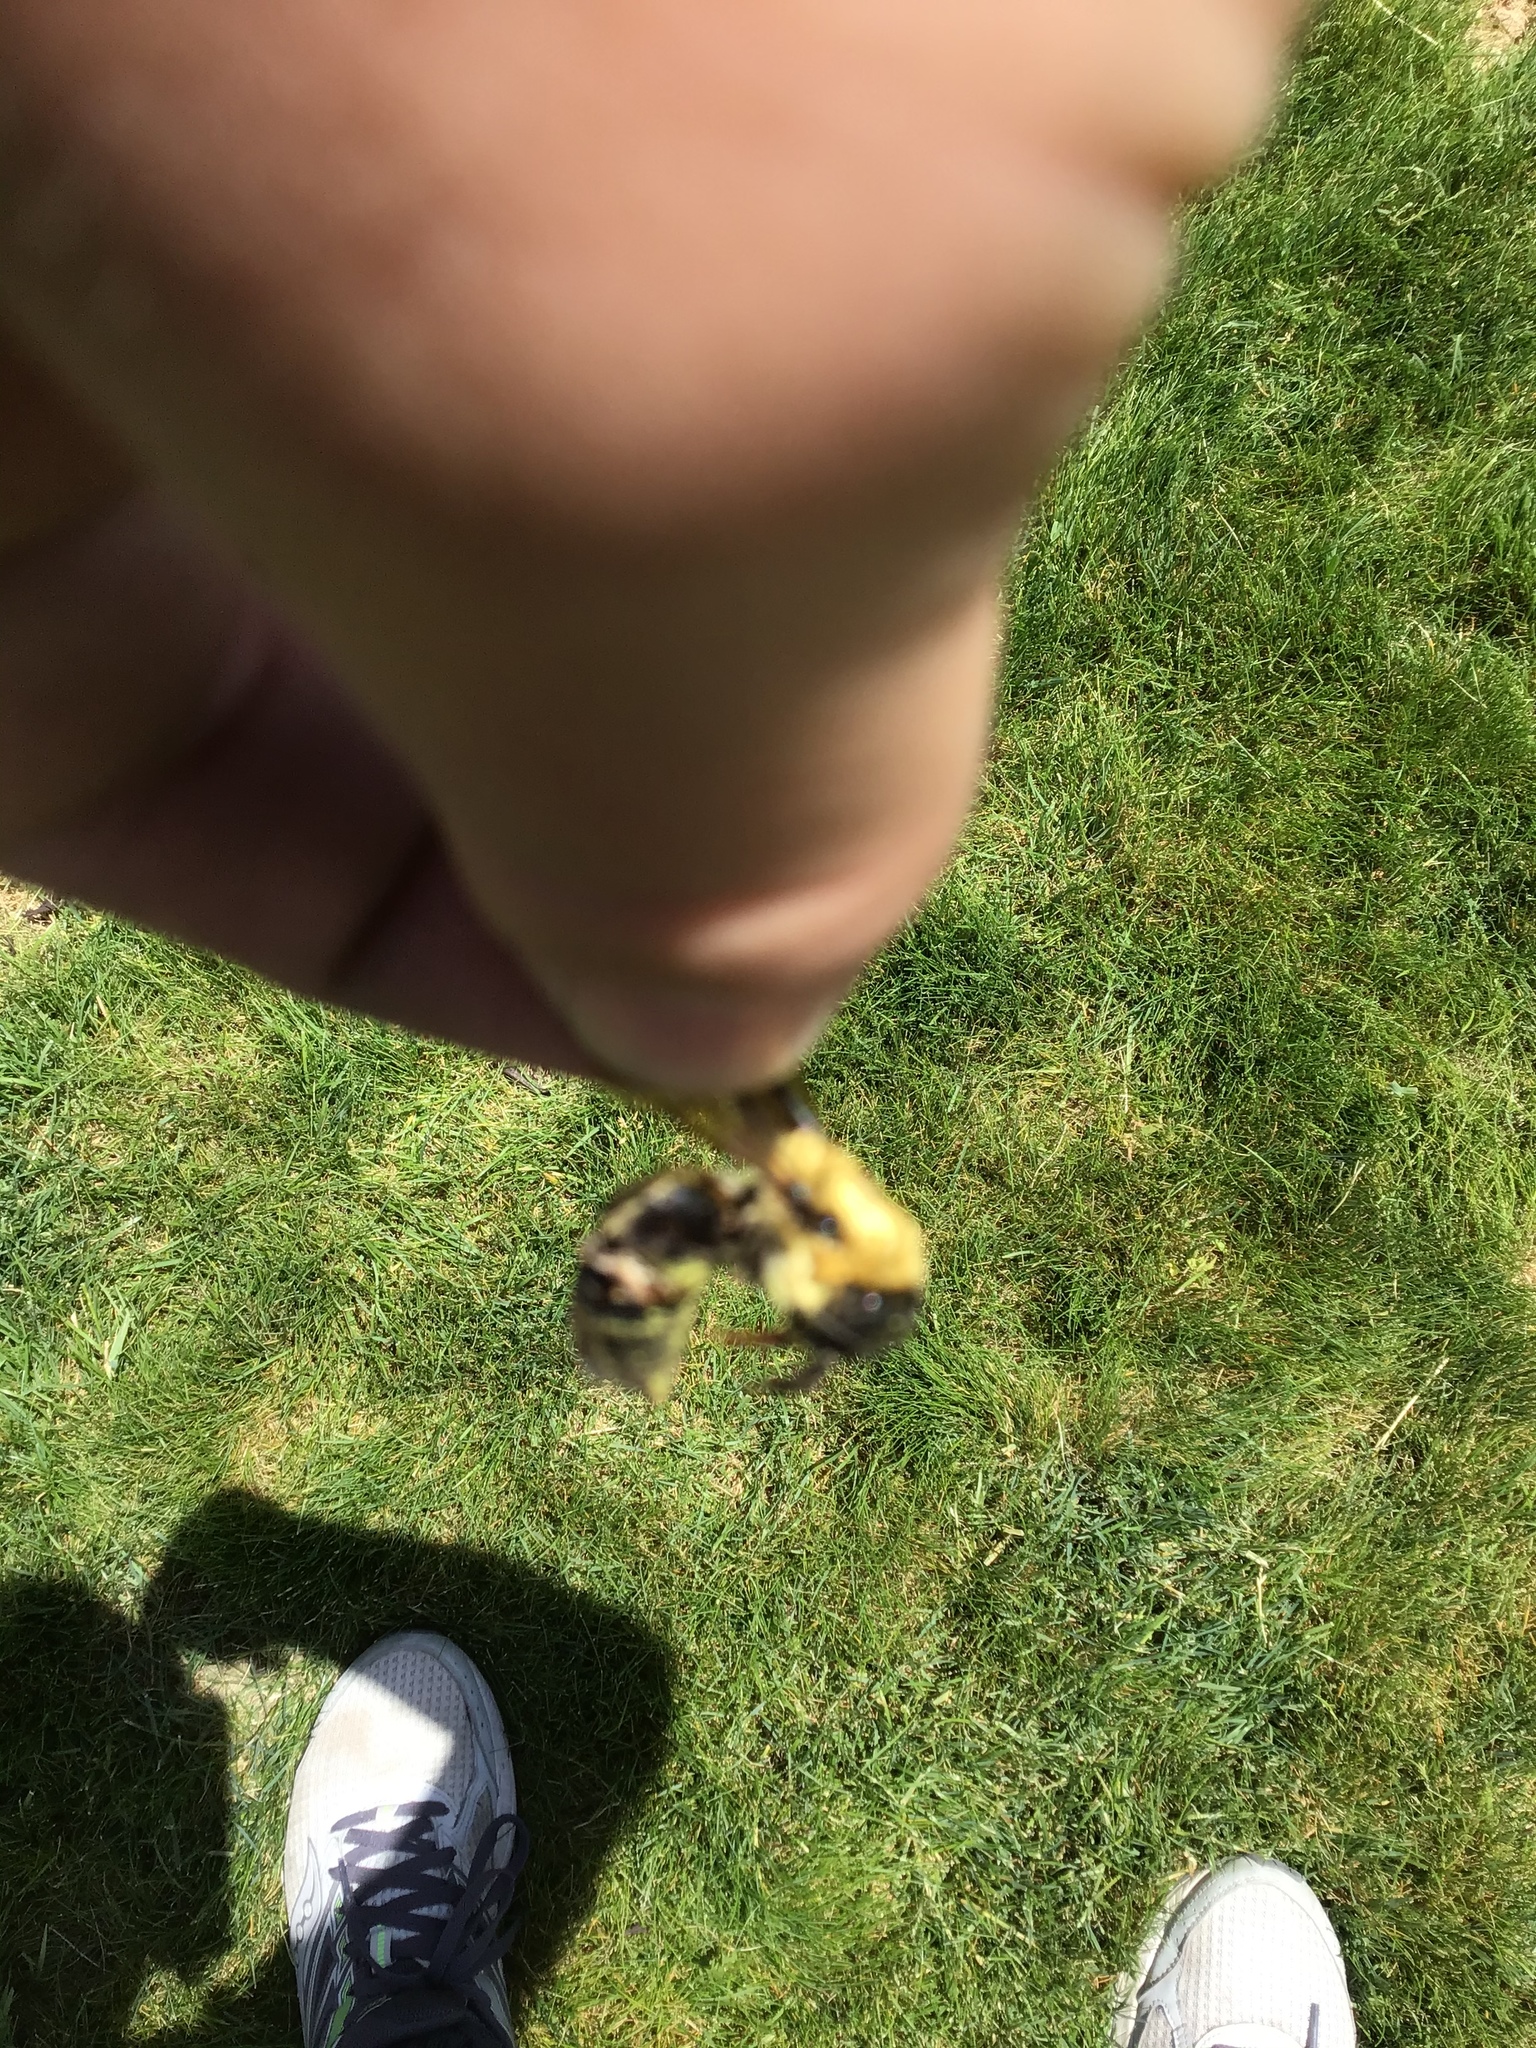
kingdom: Animalia
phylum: Arthropoda
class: Insecta
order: Hymenoptera
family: Apidae
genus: Bombus
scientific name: Bombus griseocollis
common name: Brown-belted bumble bee
